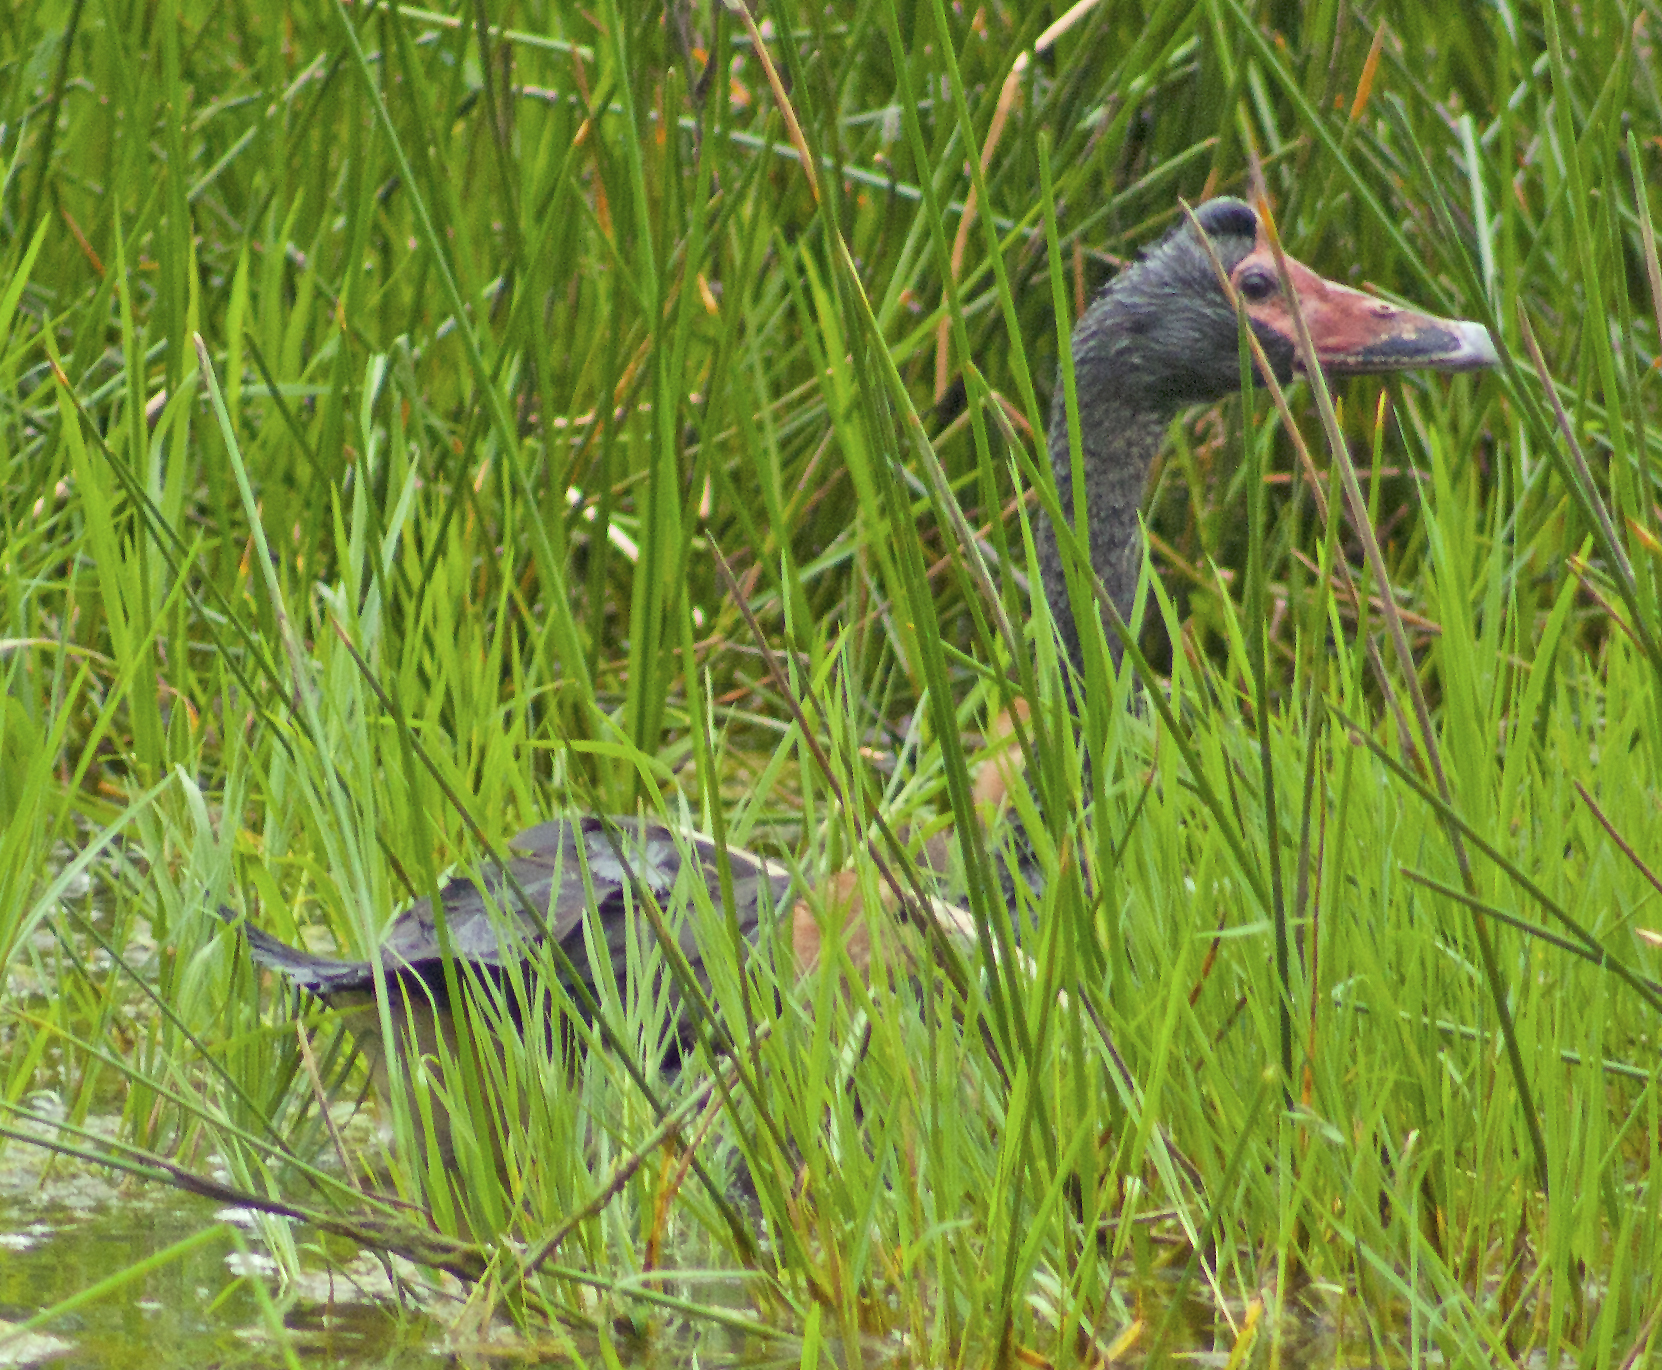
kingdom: Animalia
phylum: Chordata
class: Aves
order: Anseriformes
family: Anseranatidae
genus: Anseranas
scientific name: Anseranas semipalmata
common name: Magpie goose
